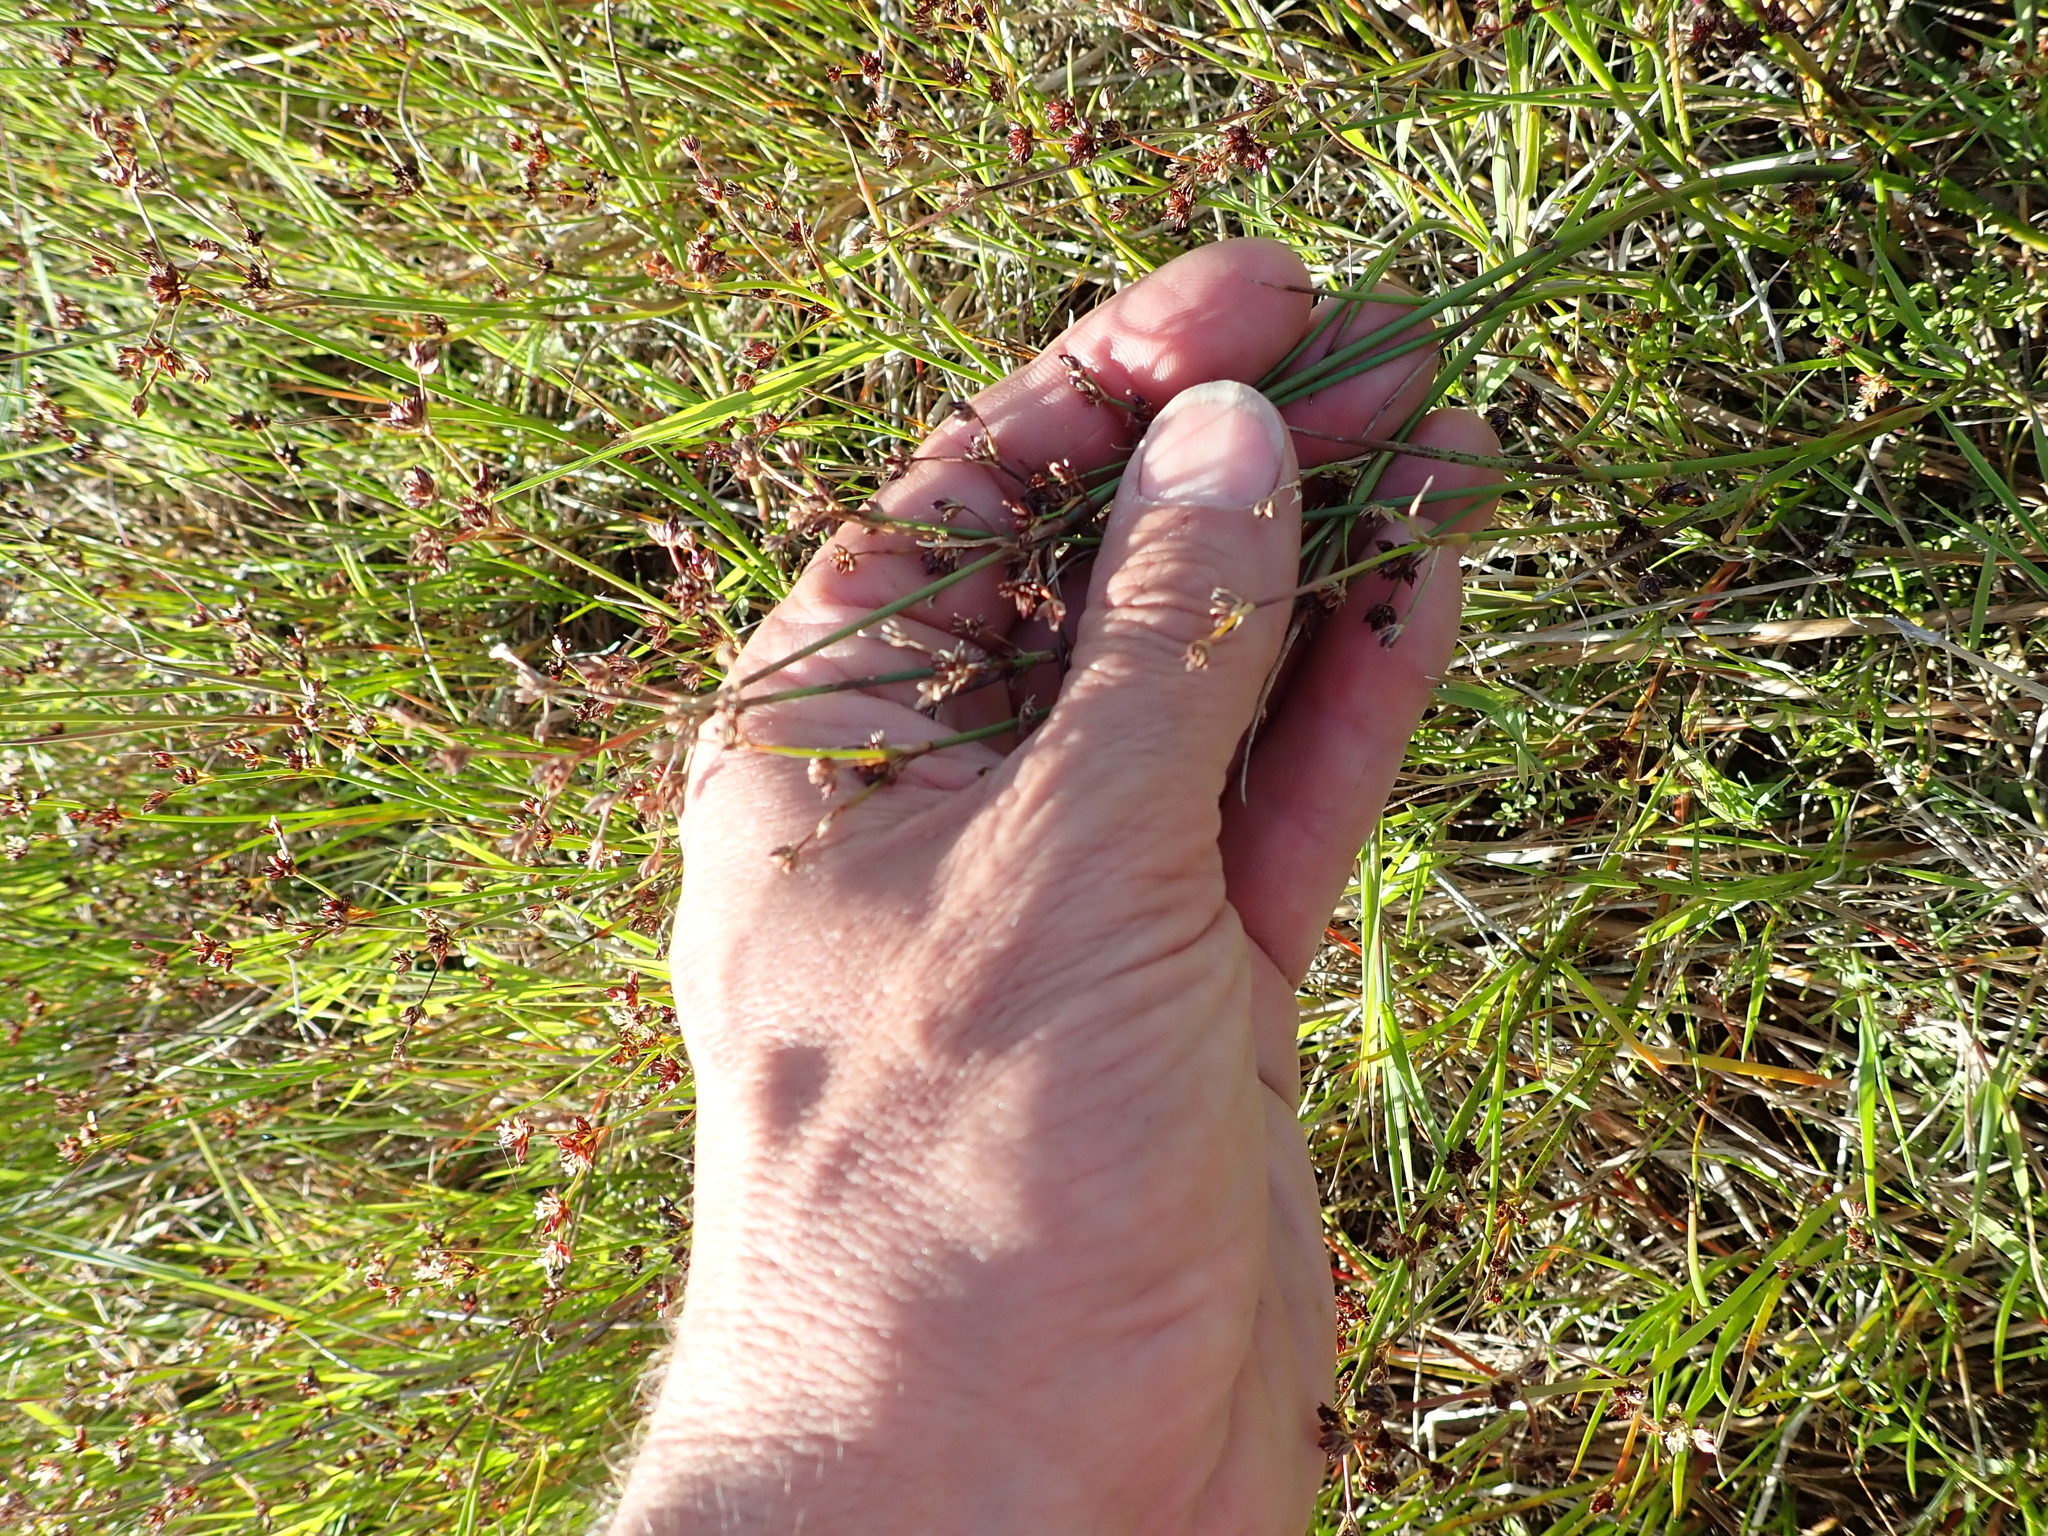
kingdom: Plantae
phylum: Tracheophyta
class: Liliopsida
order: Poales
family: Juncaceae
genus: Juncus
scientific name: Juncus articulatus
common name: Jointed rush
